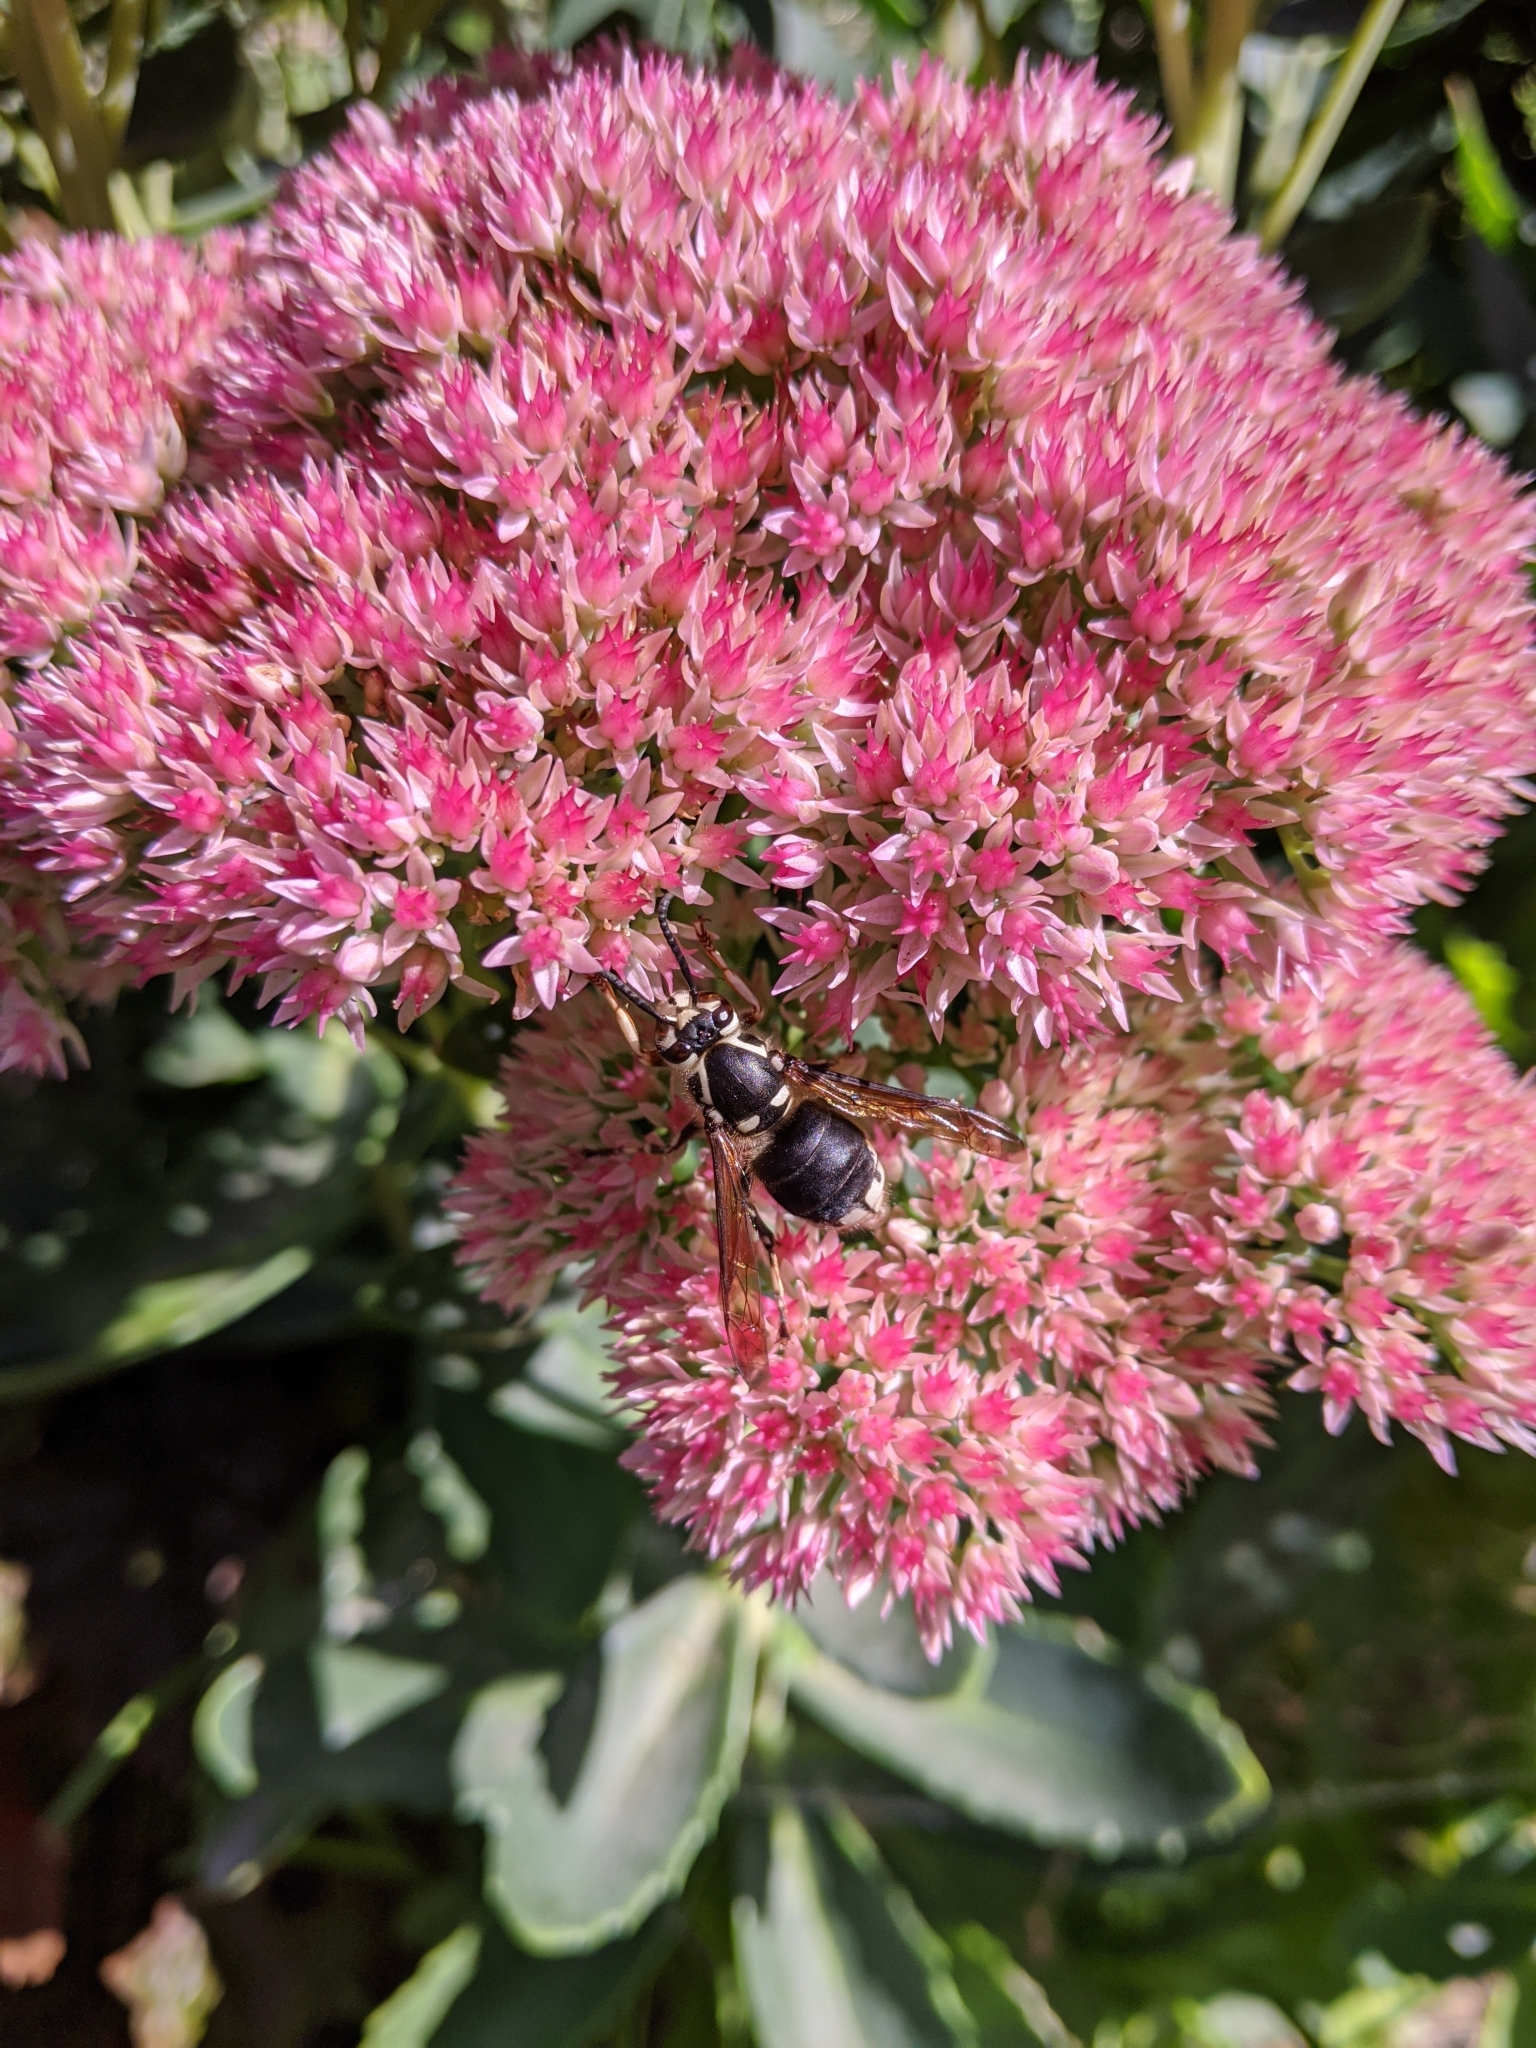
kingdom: Animalia
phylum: Arthropoda
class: Insecta
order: Hymenoptera
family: Vespidae
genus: Dolichovespula
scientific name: Dolichovespula maculata
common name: Bald-faced hornet
